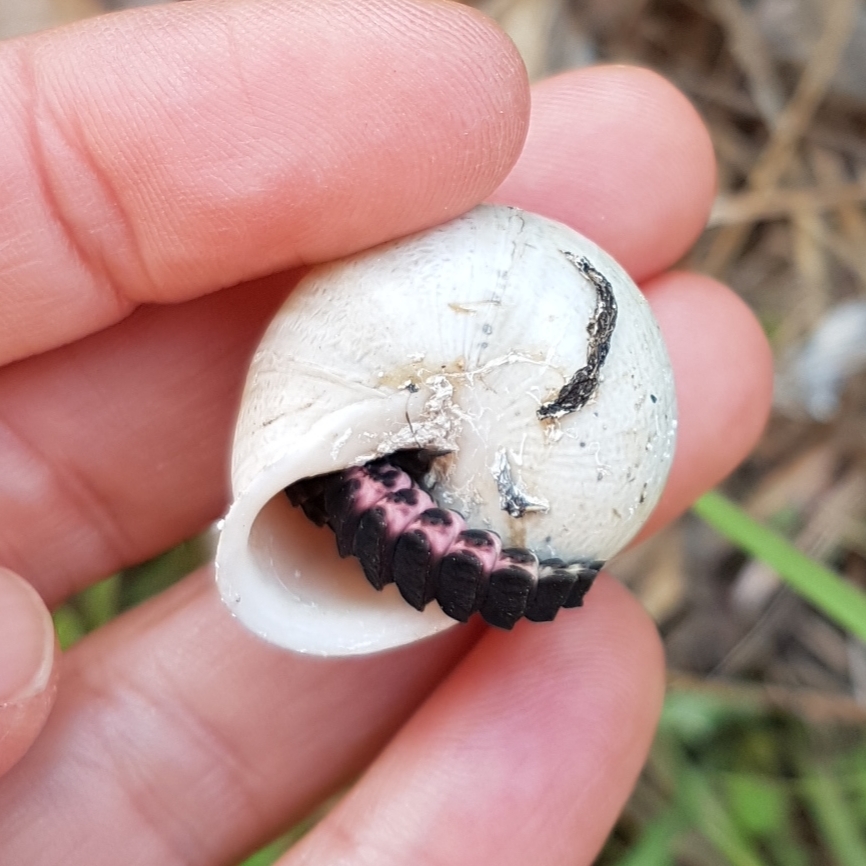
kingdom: Animalia
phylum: Arthropoda
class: Insecta
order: Coleoptera
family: Lampyridae
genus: Nyctophila
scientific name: Nyctophila reichii
